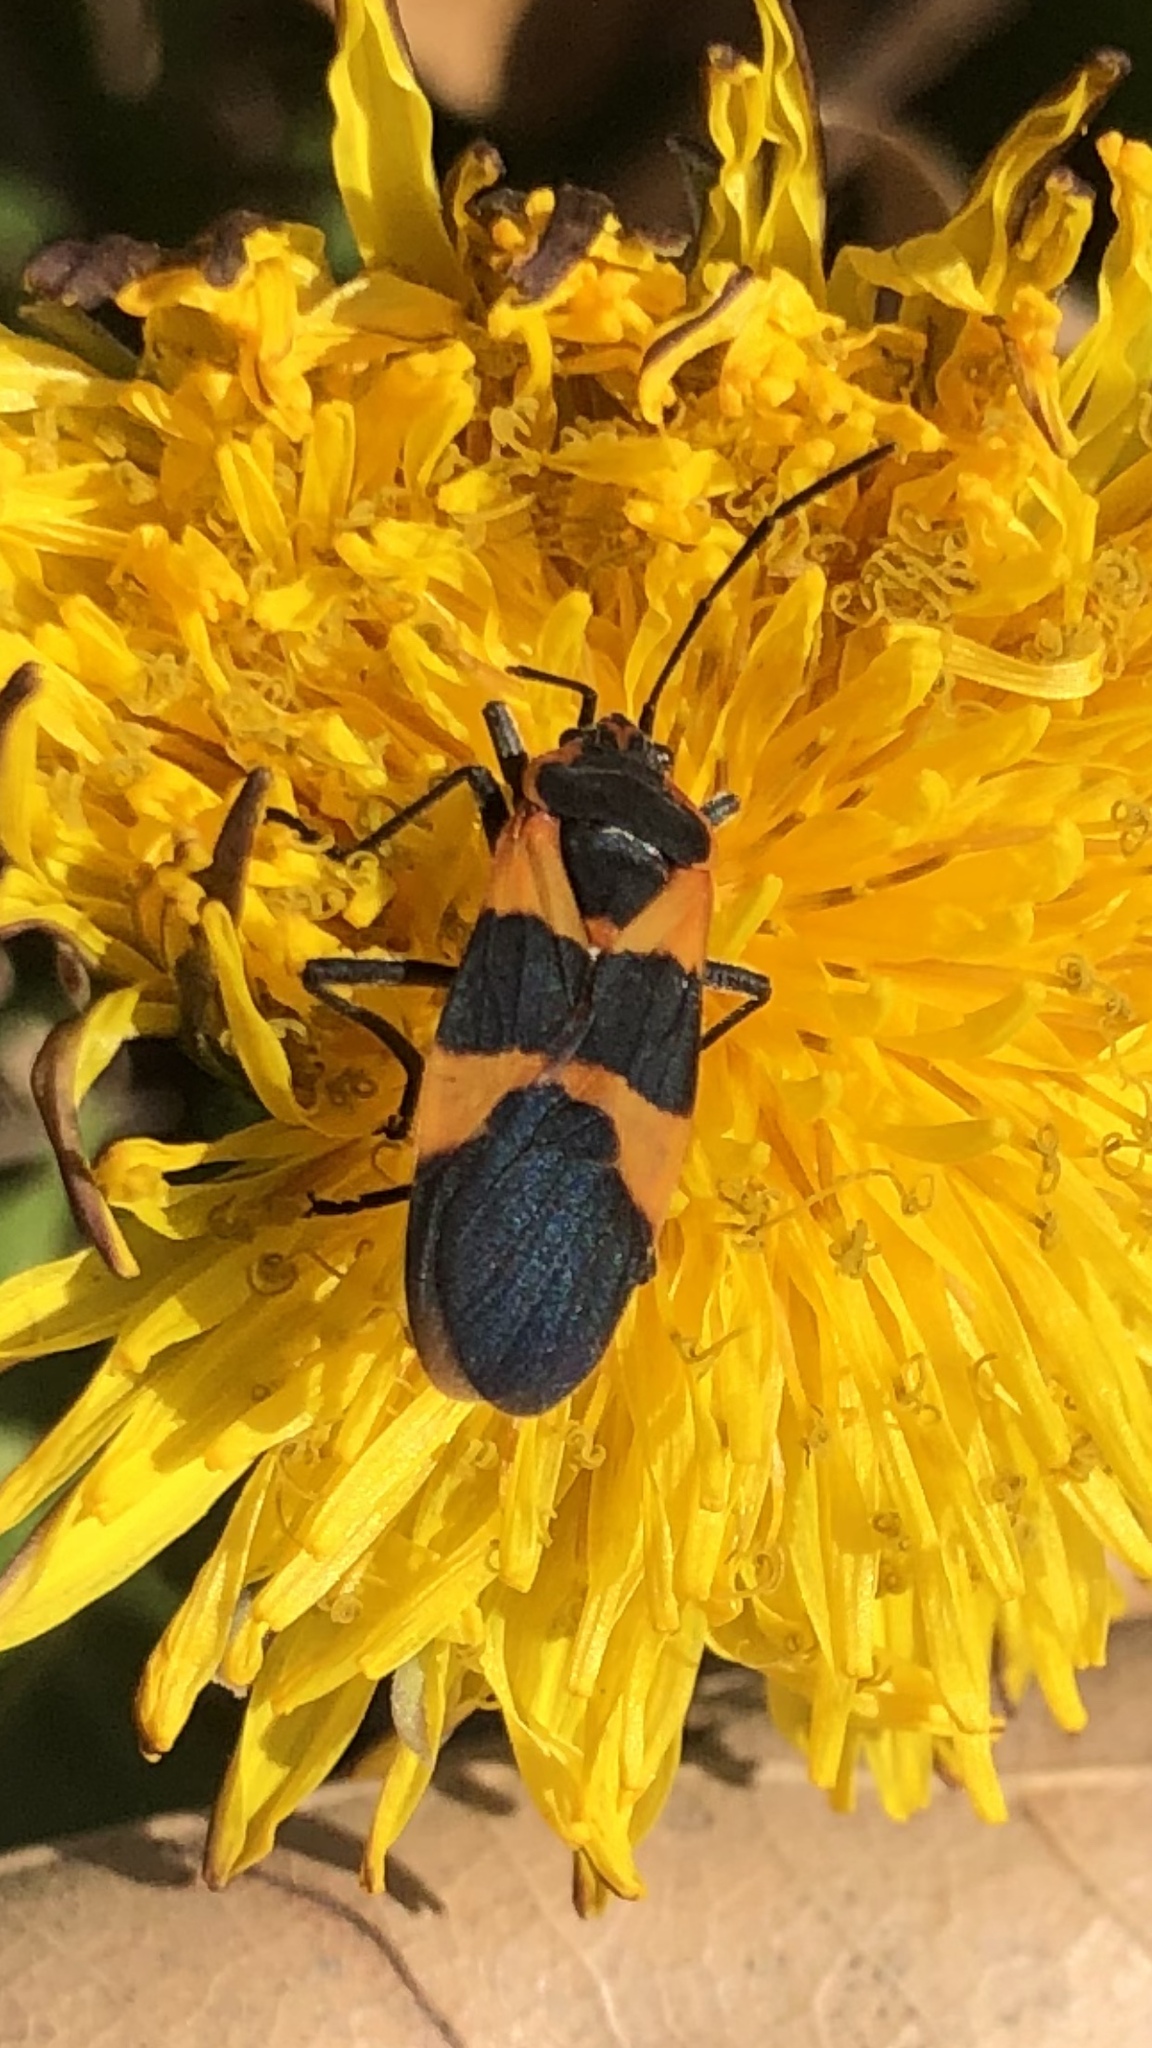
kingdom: Animalia
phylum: Arthropoda
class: Insecta
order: Hemiptera
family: Lygaeidae
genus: Oncopeltus
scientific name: Oncopeltus fasciatus
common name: Large milkweed bug
